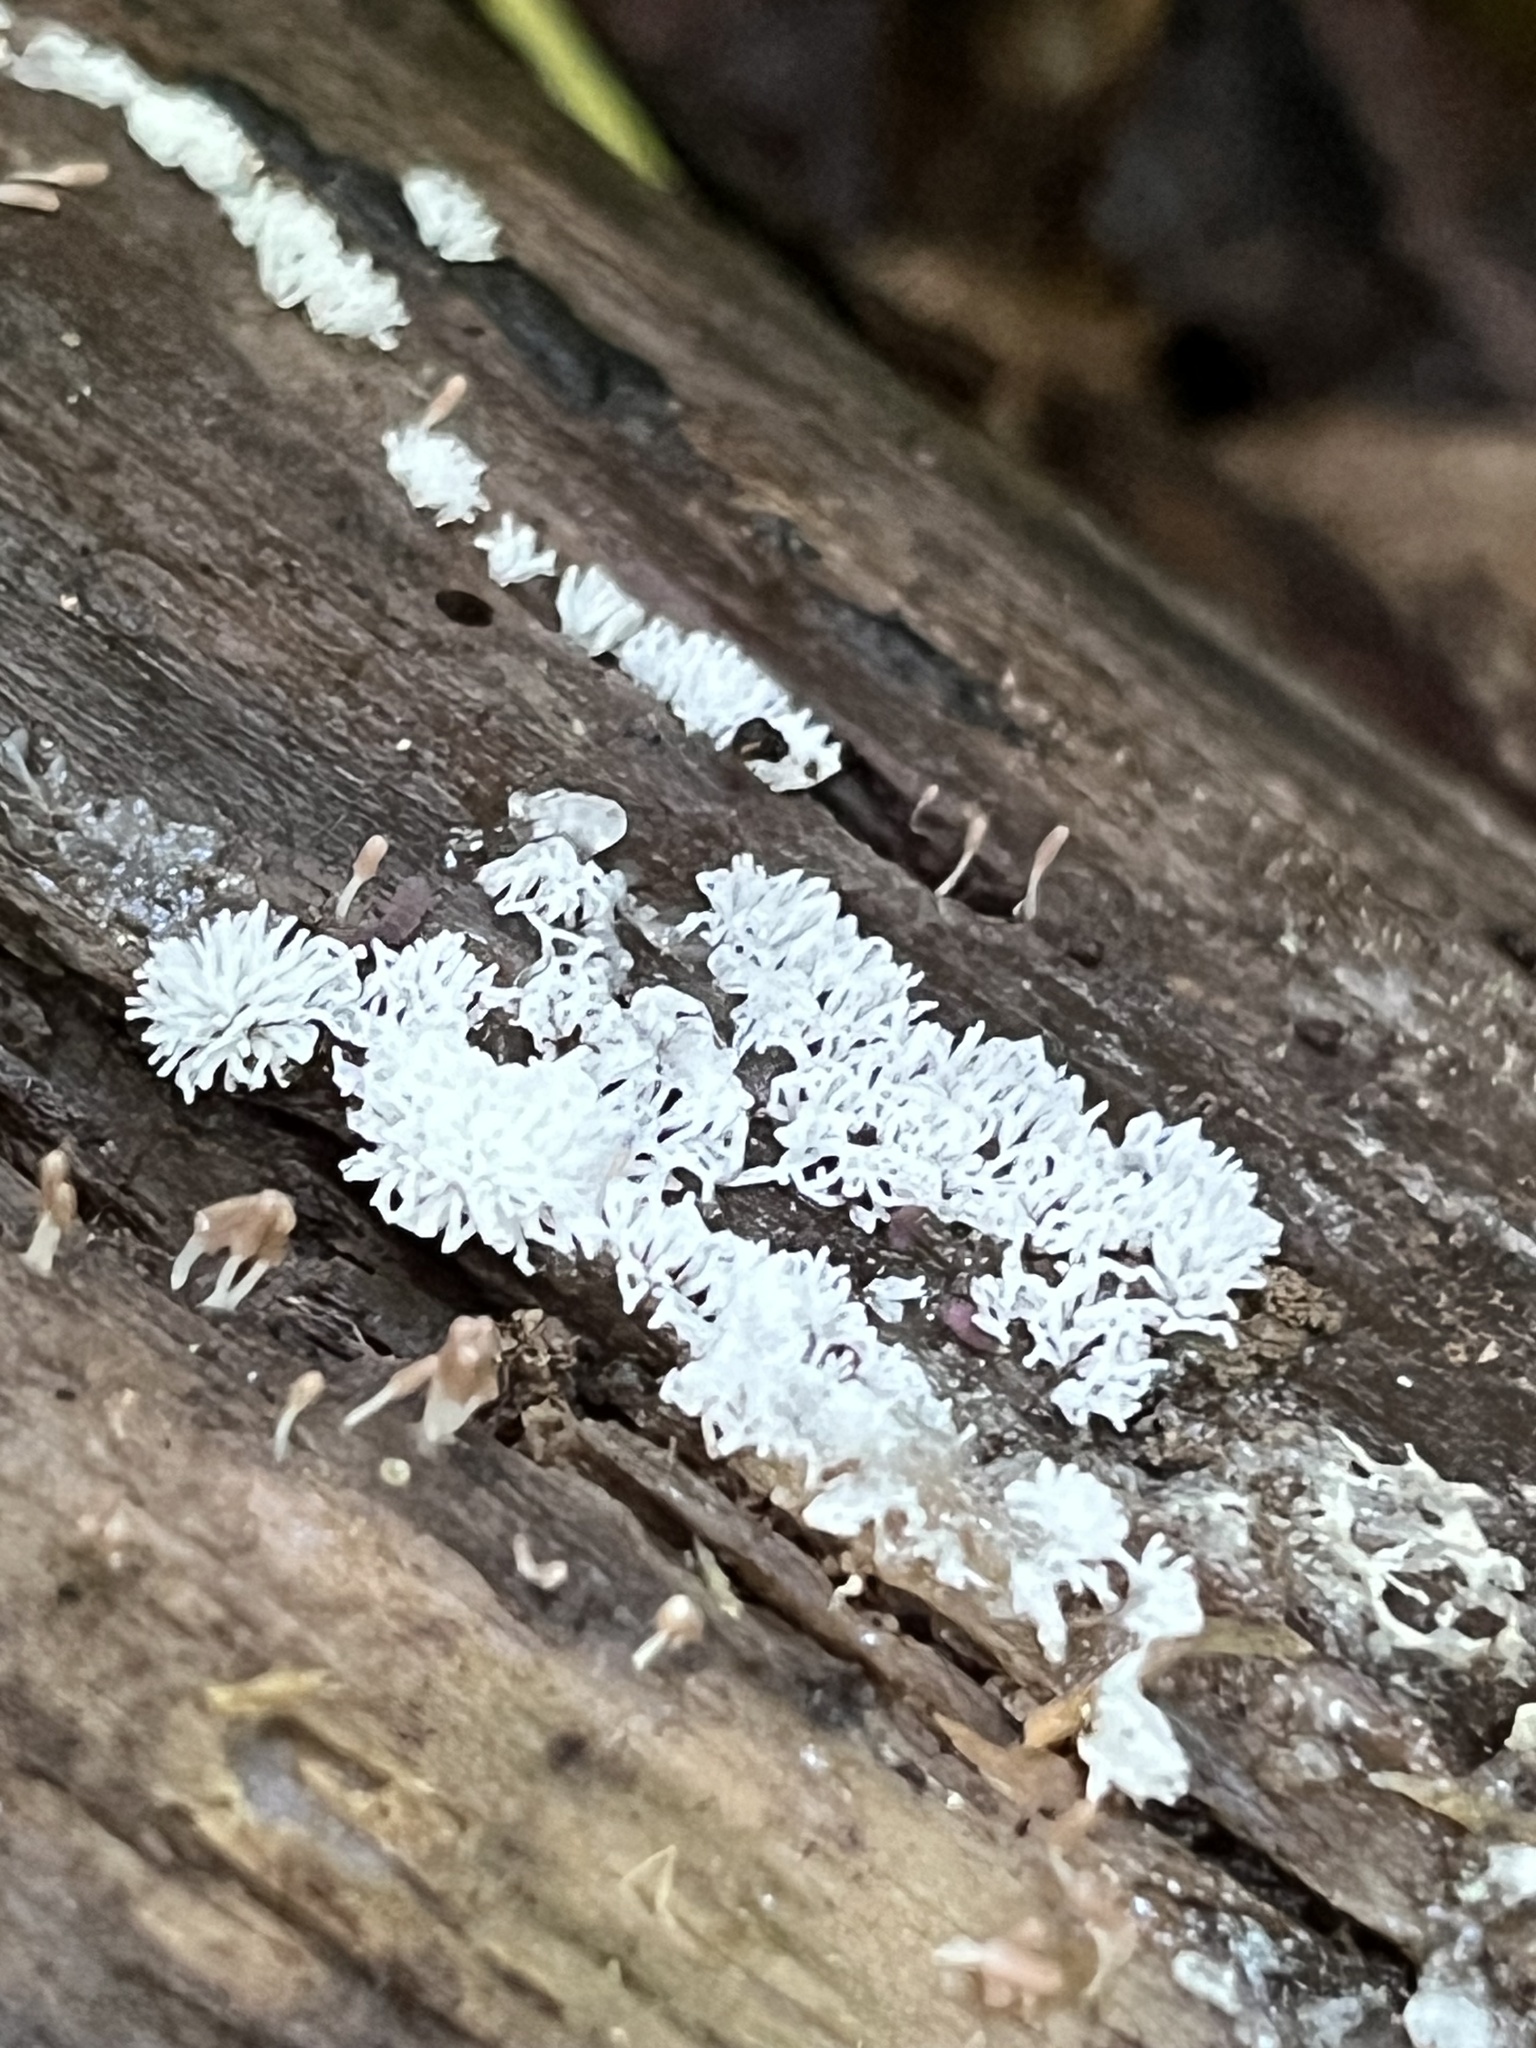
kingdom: Protozoa
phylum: Mycetozoa
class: Protosteliomycetes
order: Ceratiomyxales
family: Ceratiomyxaceae
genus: Ceratiomyxa
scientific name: Ceratiomyxa fruticulosa
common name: Honeycomb coral slime mold
